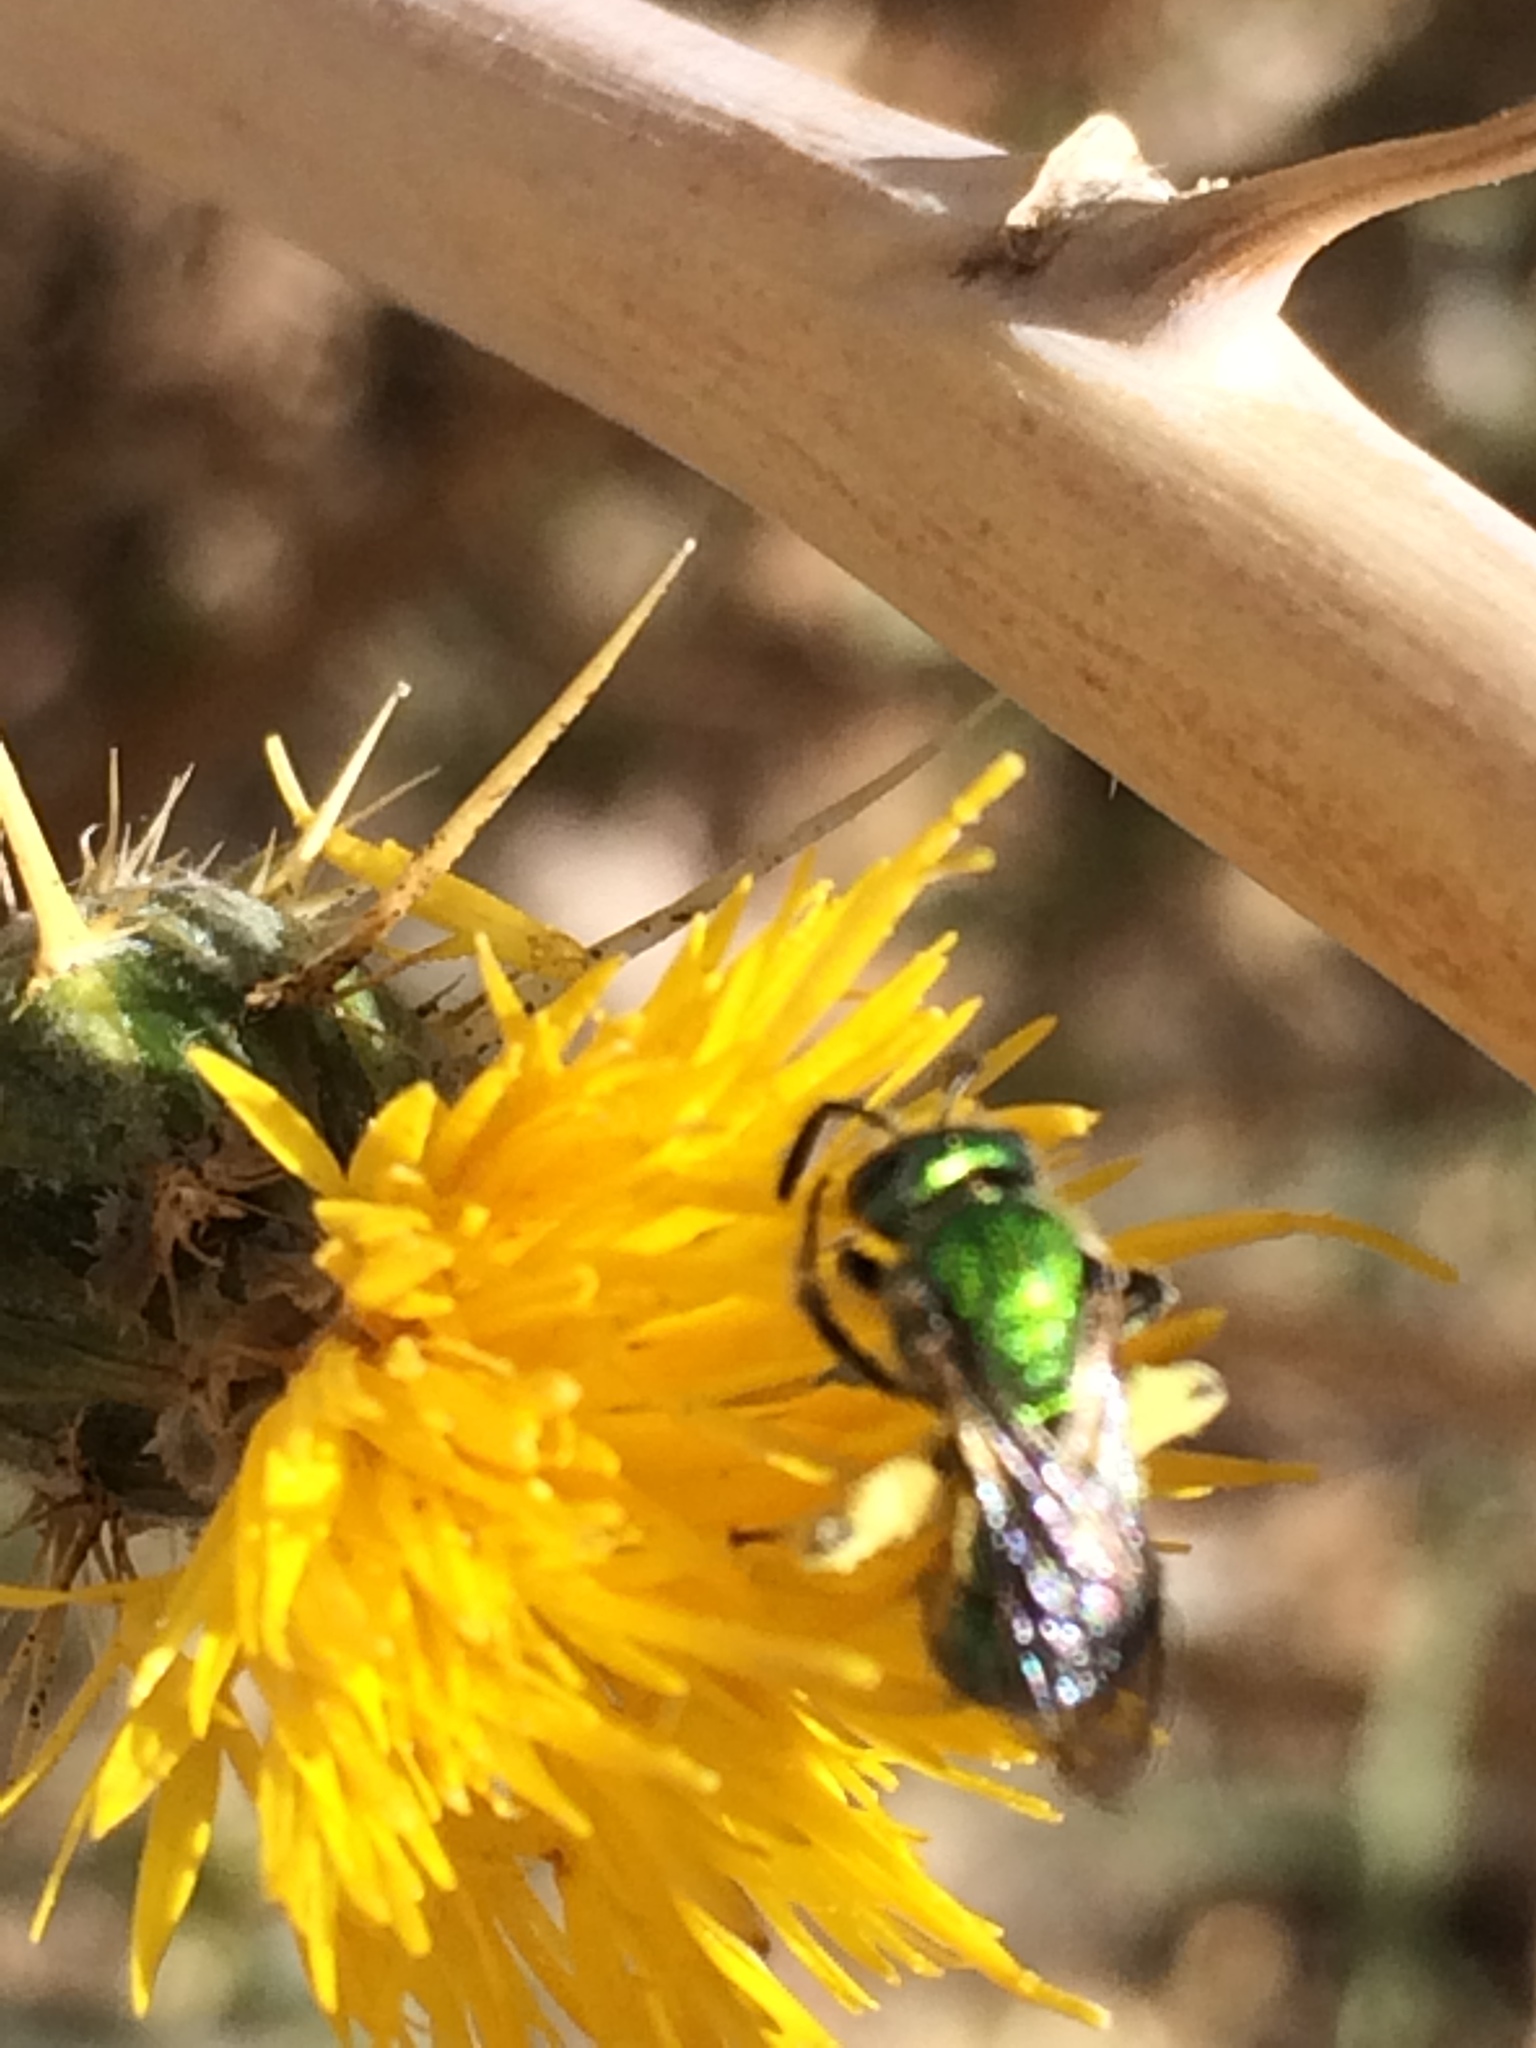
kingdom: Animalia
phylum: Arthropoda
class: Insecta
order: Hymenoptera
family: Halictidae
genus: Augochlorella
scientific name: Augochlorella pomoniella
